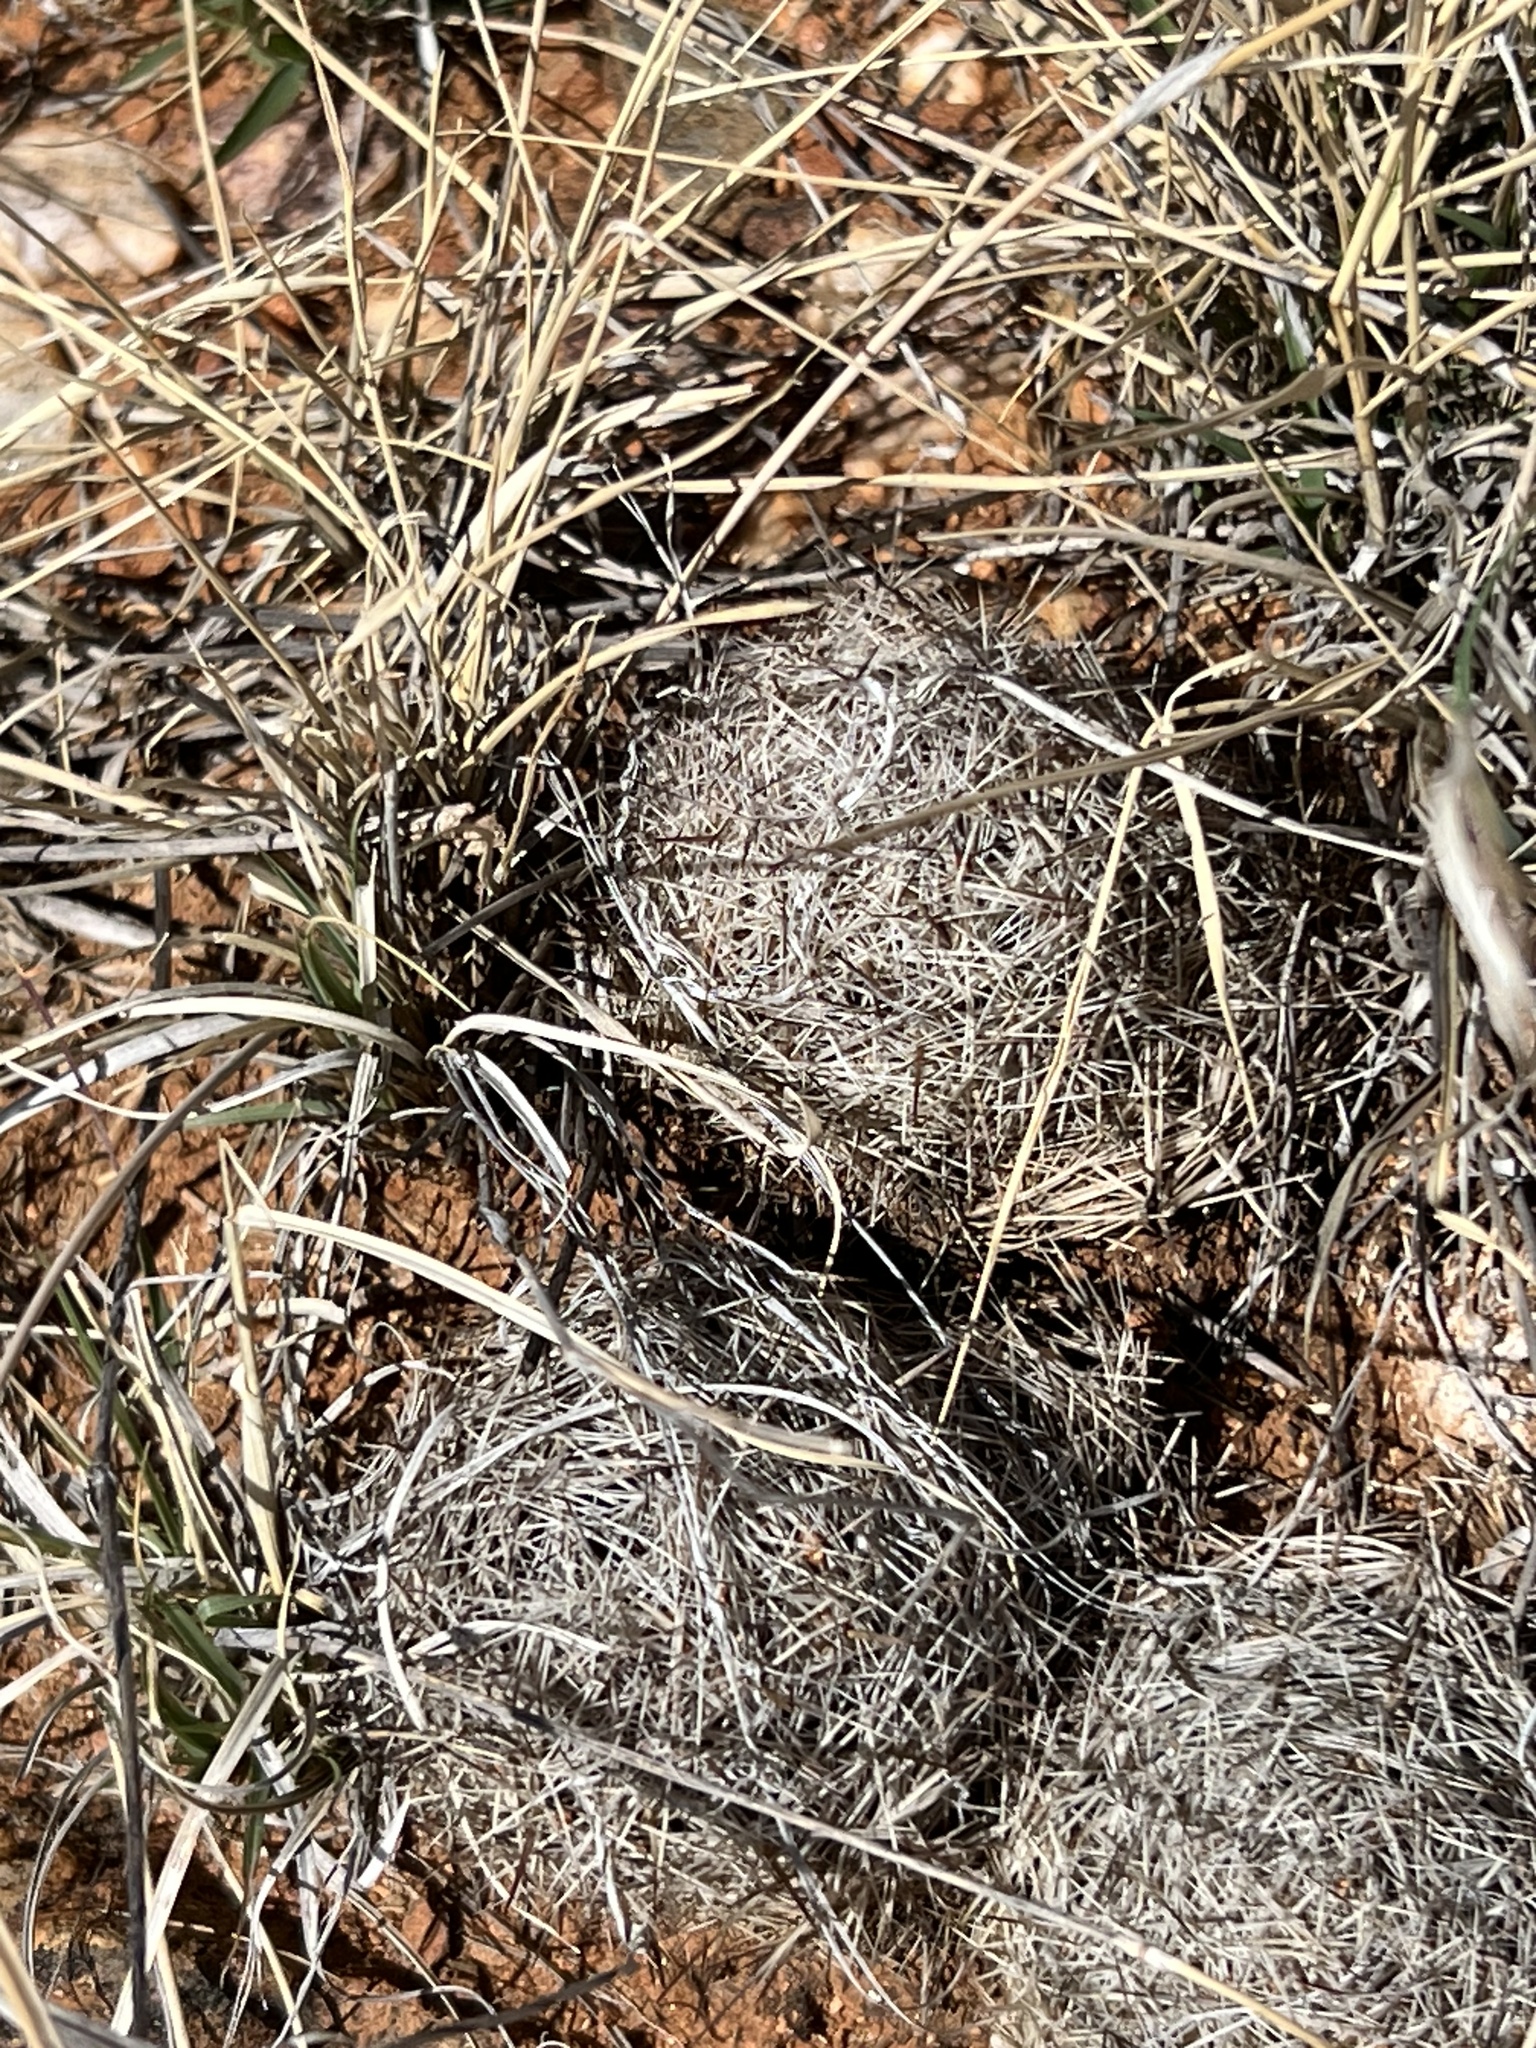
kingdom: Plantae
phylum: Tracheophyta
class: Magnoliopsida
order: Caryophyllales
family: Cactaceae
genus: Pelecyphora
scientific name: Pelecyphora vivipara
